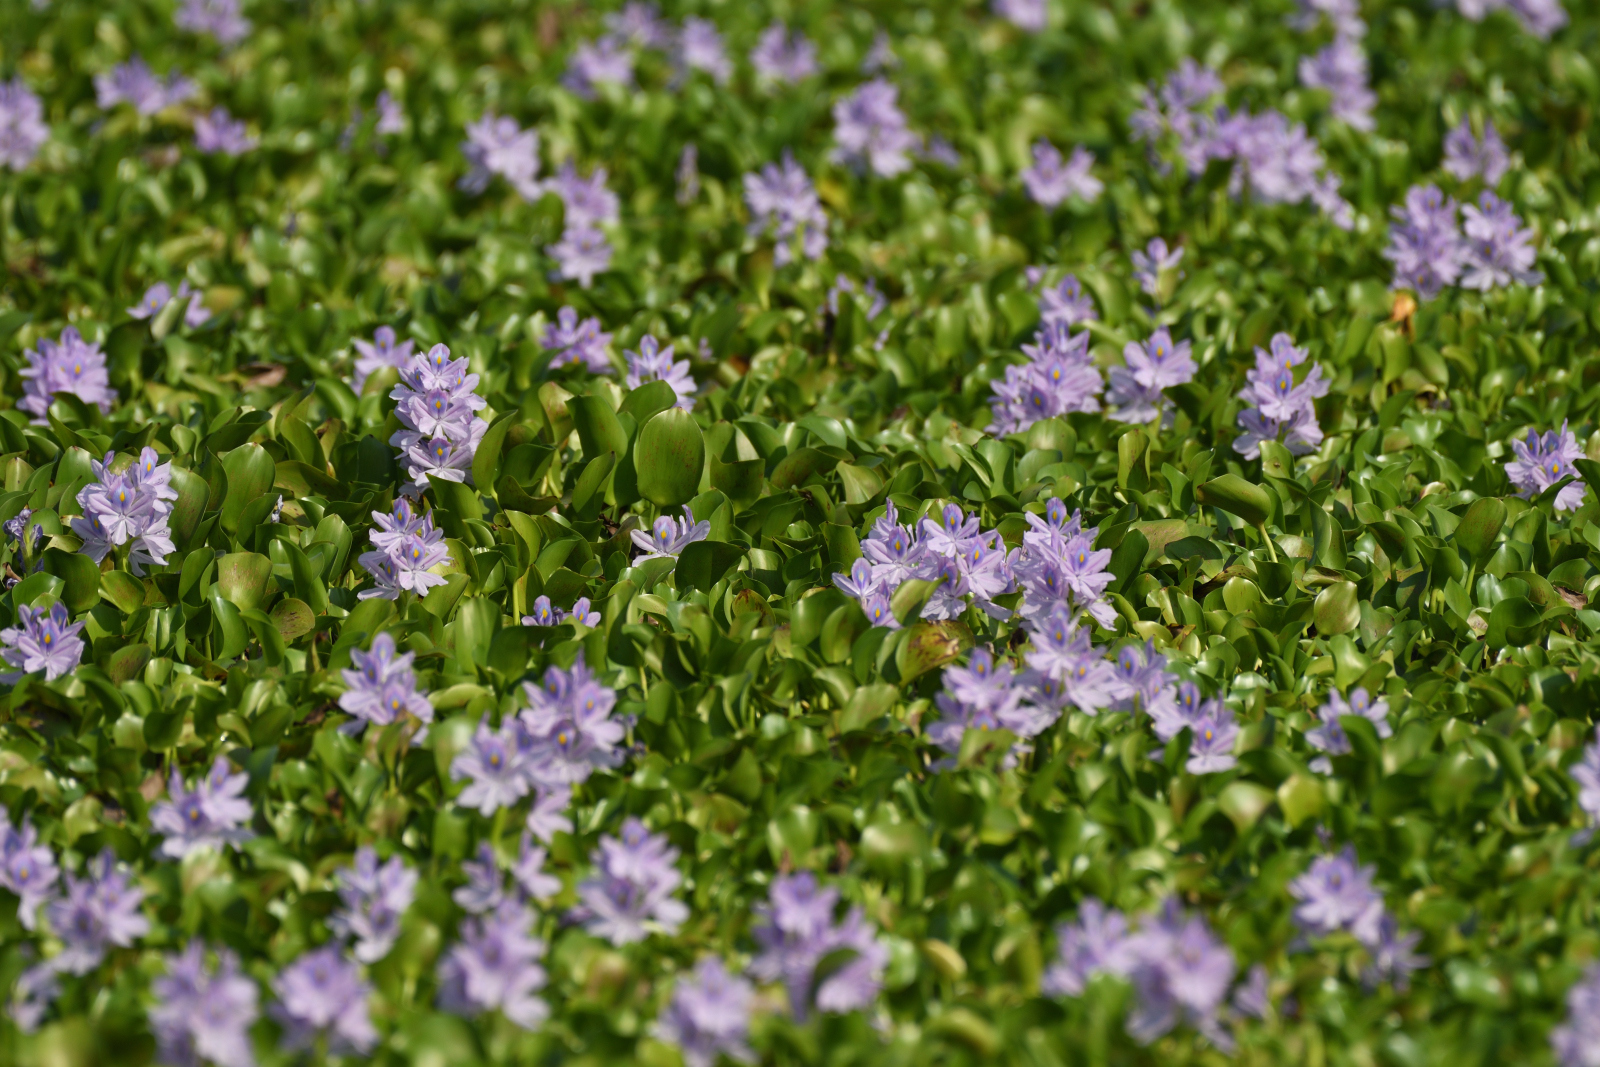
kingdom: Plantae
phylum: Tracheophyta
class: Liliopsida
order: Commelinales
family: Pontederiaceae
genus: Pontederia
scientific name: Pontederia crassipes
